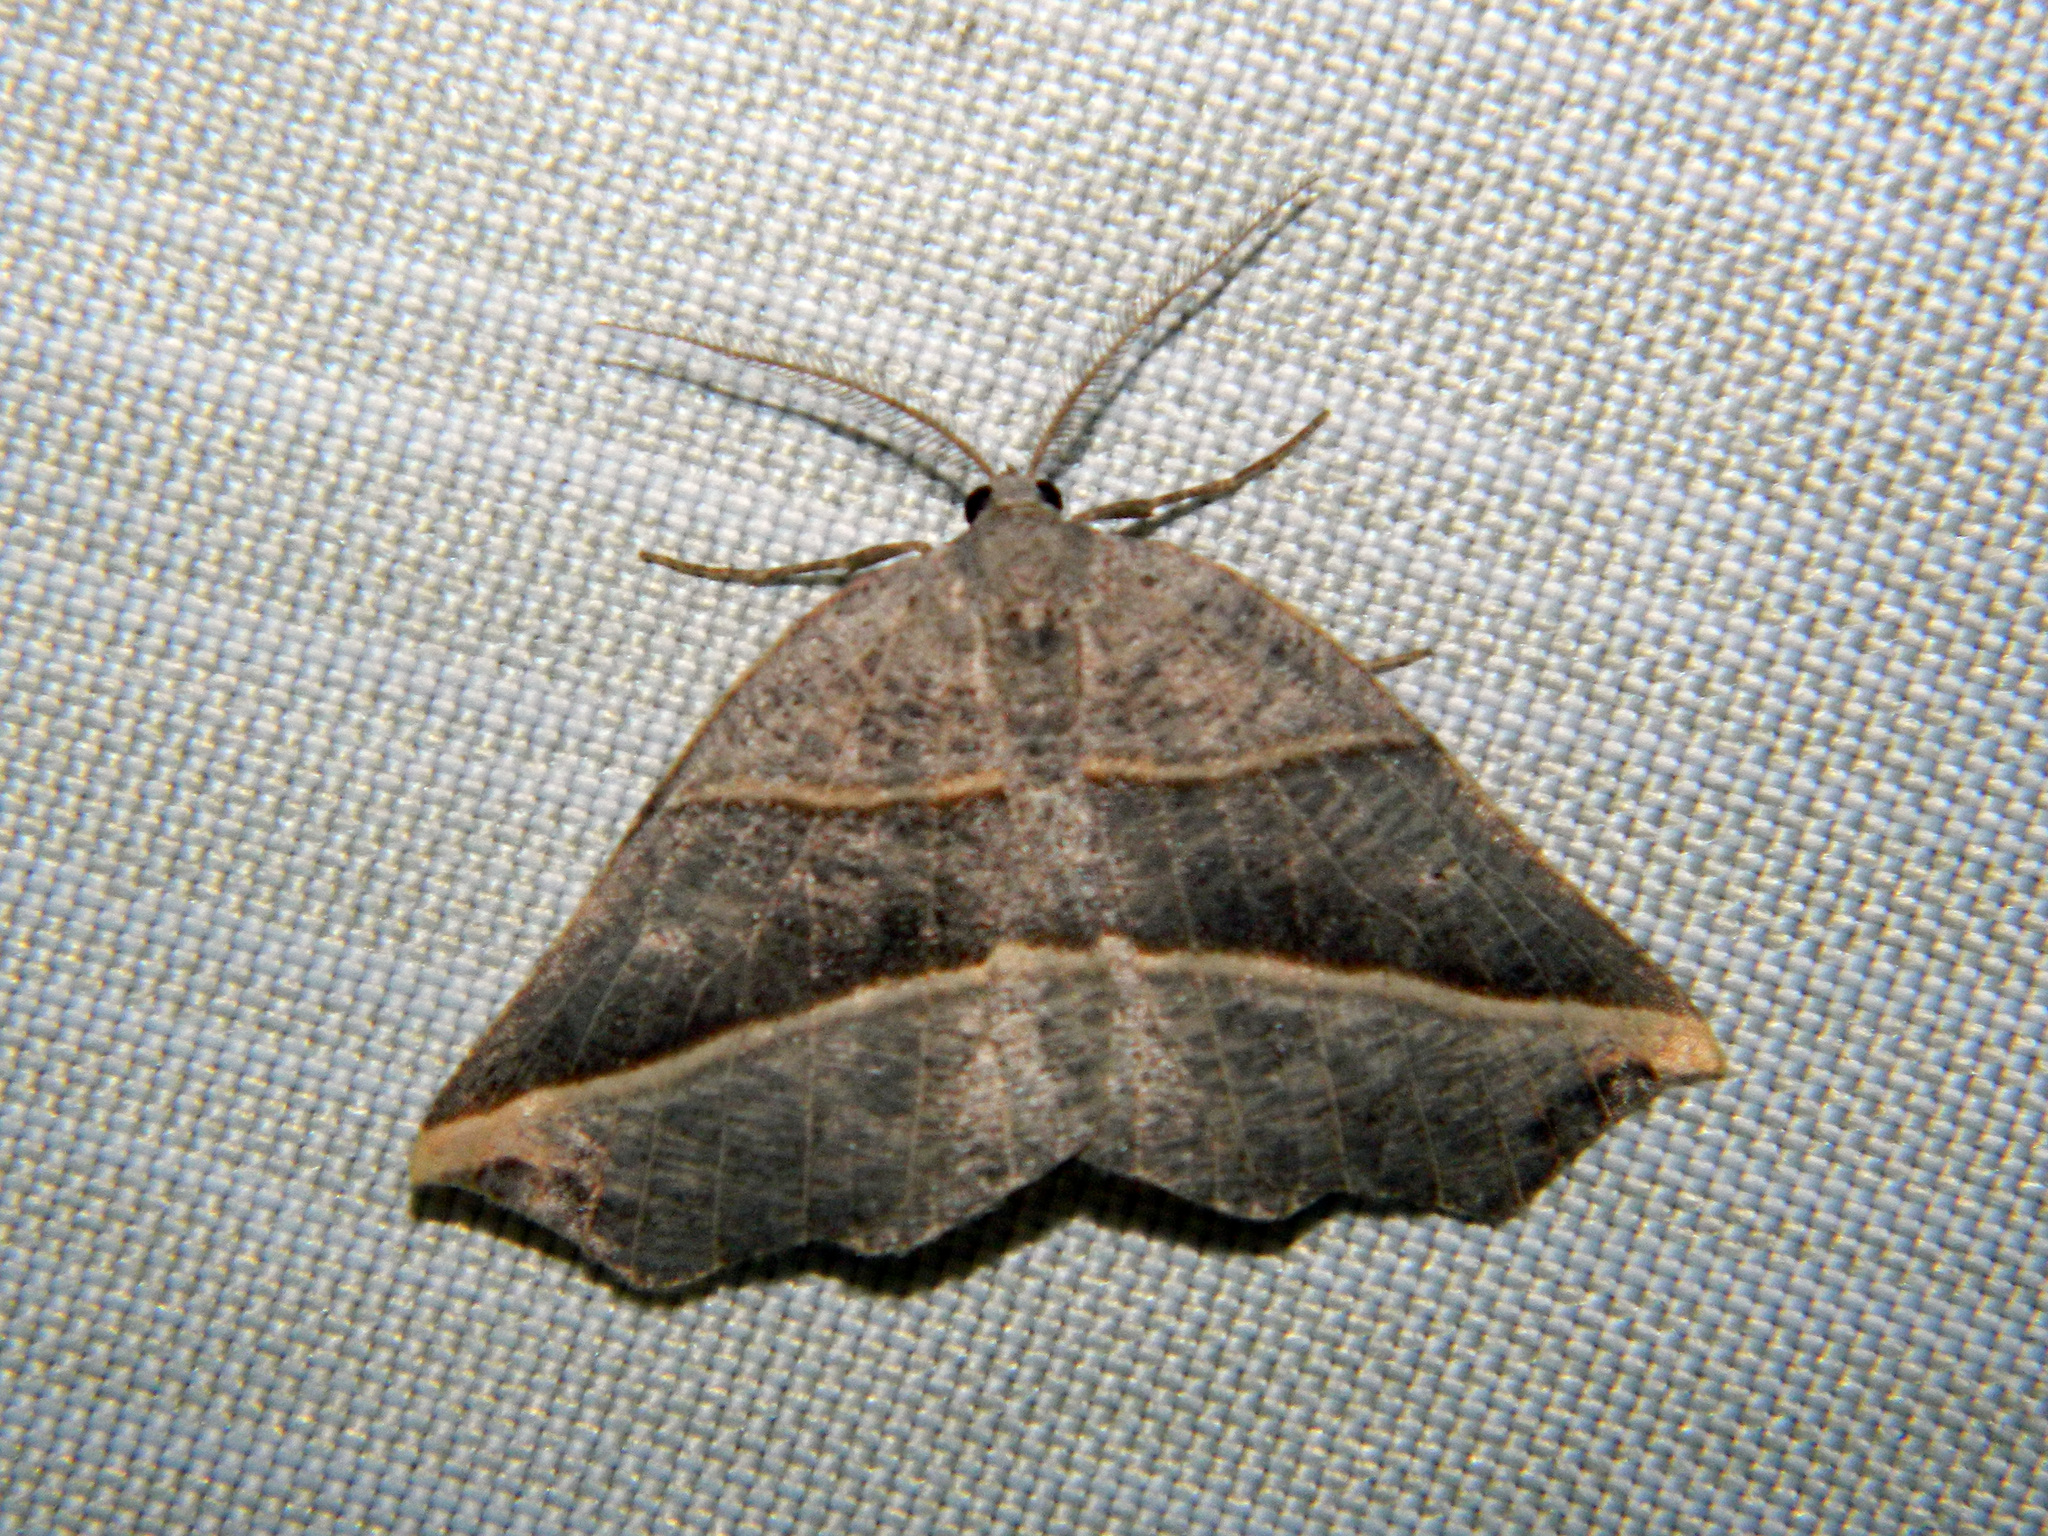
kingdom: Animalia
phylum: Arthropoda
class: Insecta
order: Lepidoptera
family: Geometridae
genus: Metanema
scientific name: Metanema determinata
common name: Dark metanema
